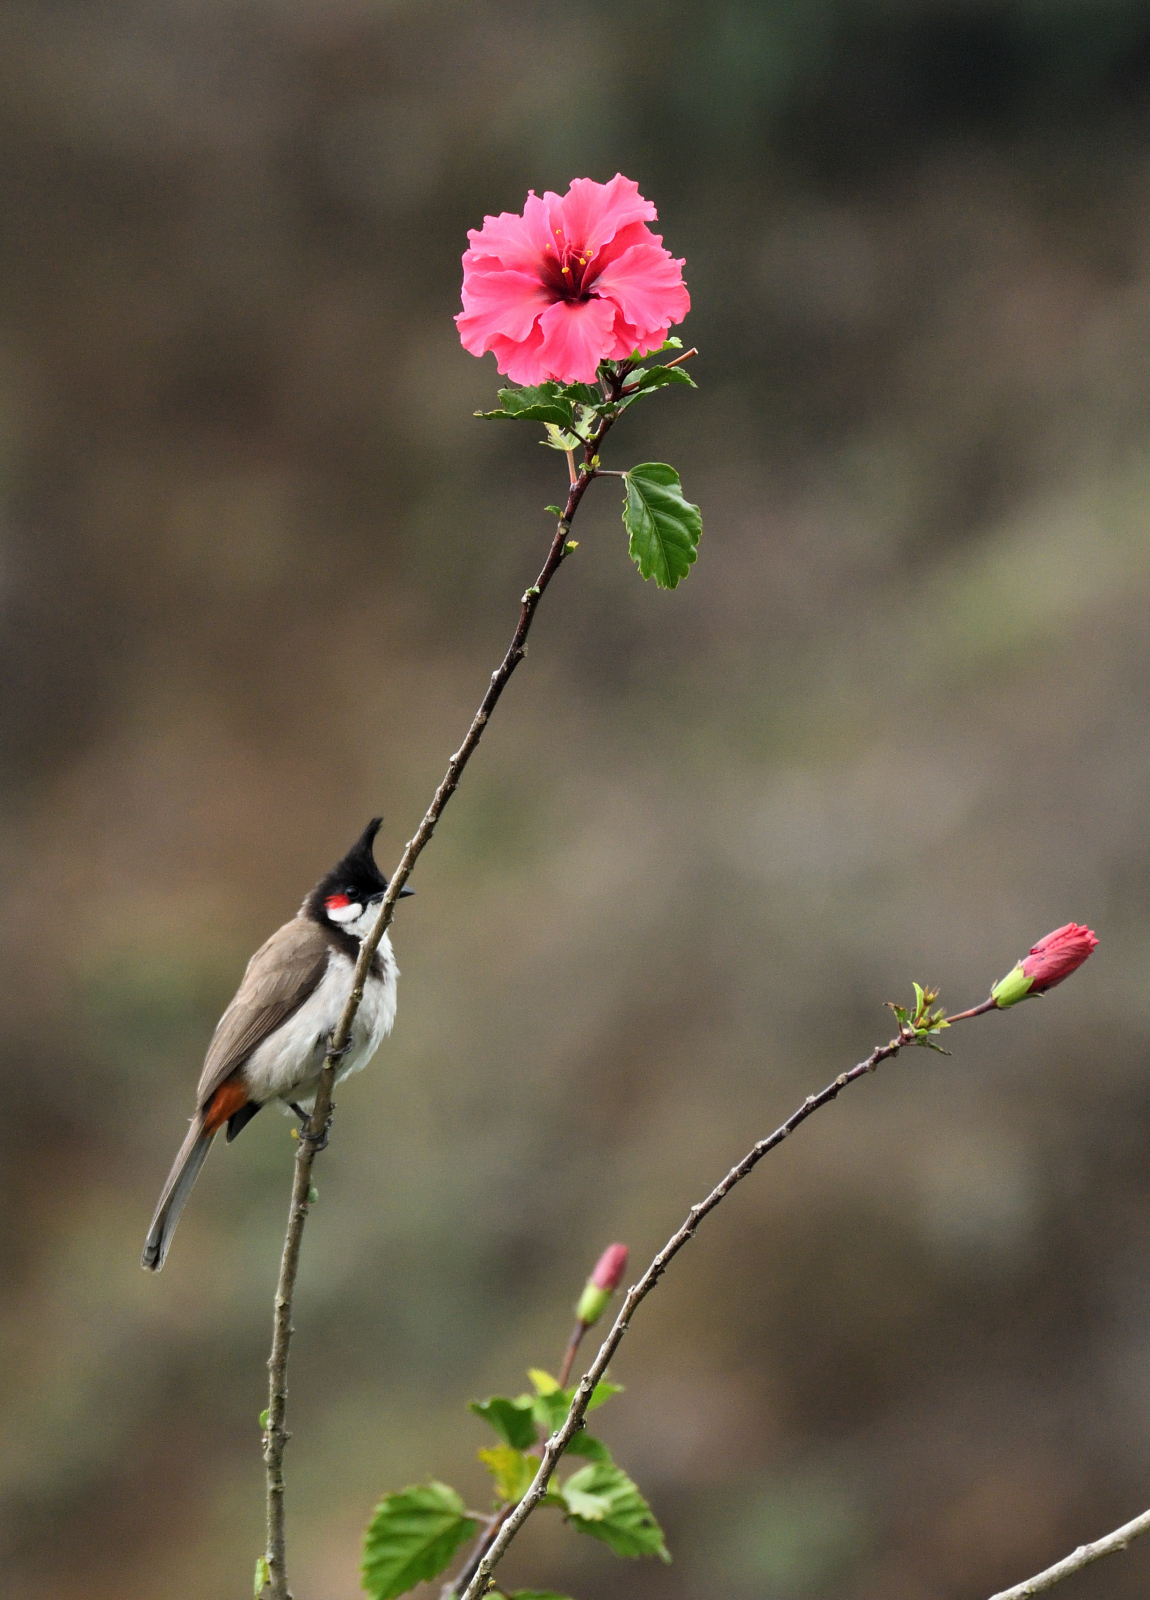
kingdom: Animalia
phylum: Chordata
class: Aves
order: Passeriformes
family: Pycnonotidae
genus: Pycnonotus
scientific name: Pycnonotus jocosus
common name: Red-whiskered bulbul
